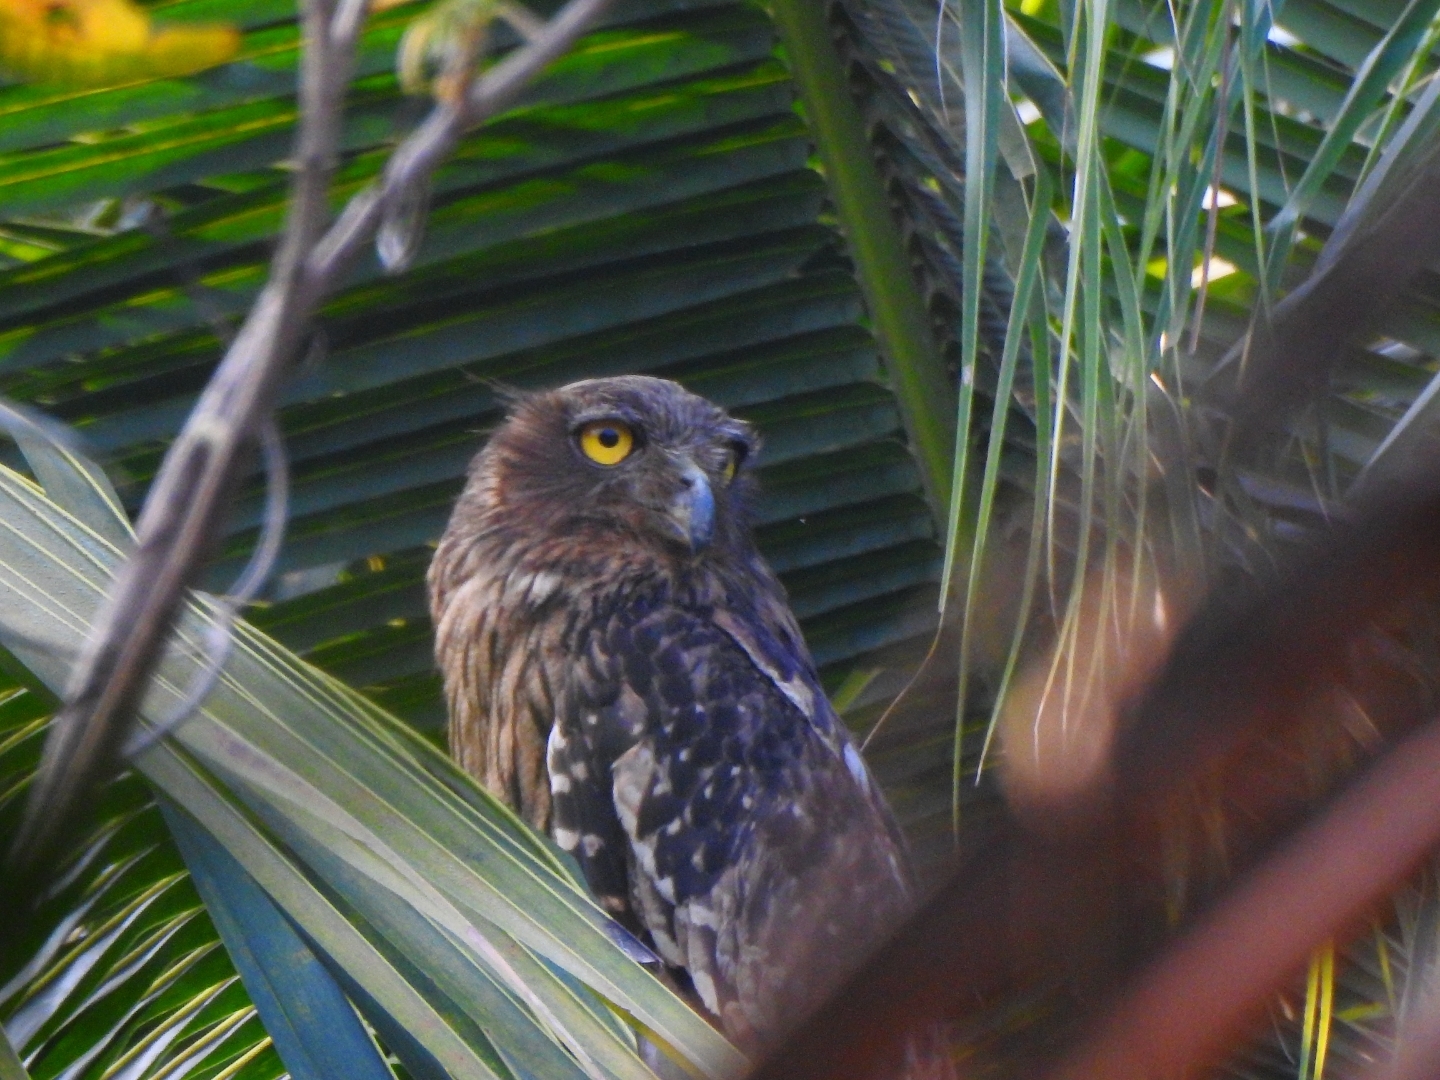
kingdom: Animalia
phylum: Chordata
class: Aves
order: Strigiformes
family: Strigidae
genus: Ketupa
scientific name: Ketupa zeylonensis
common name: Brown fish owl
